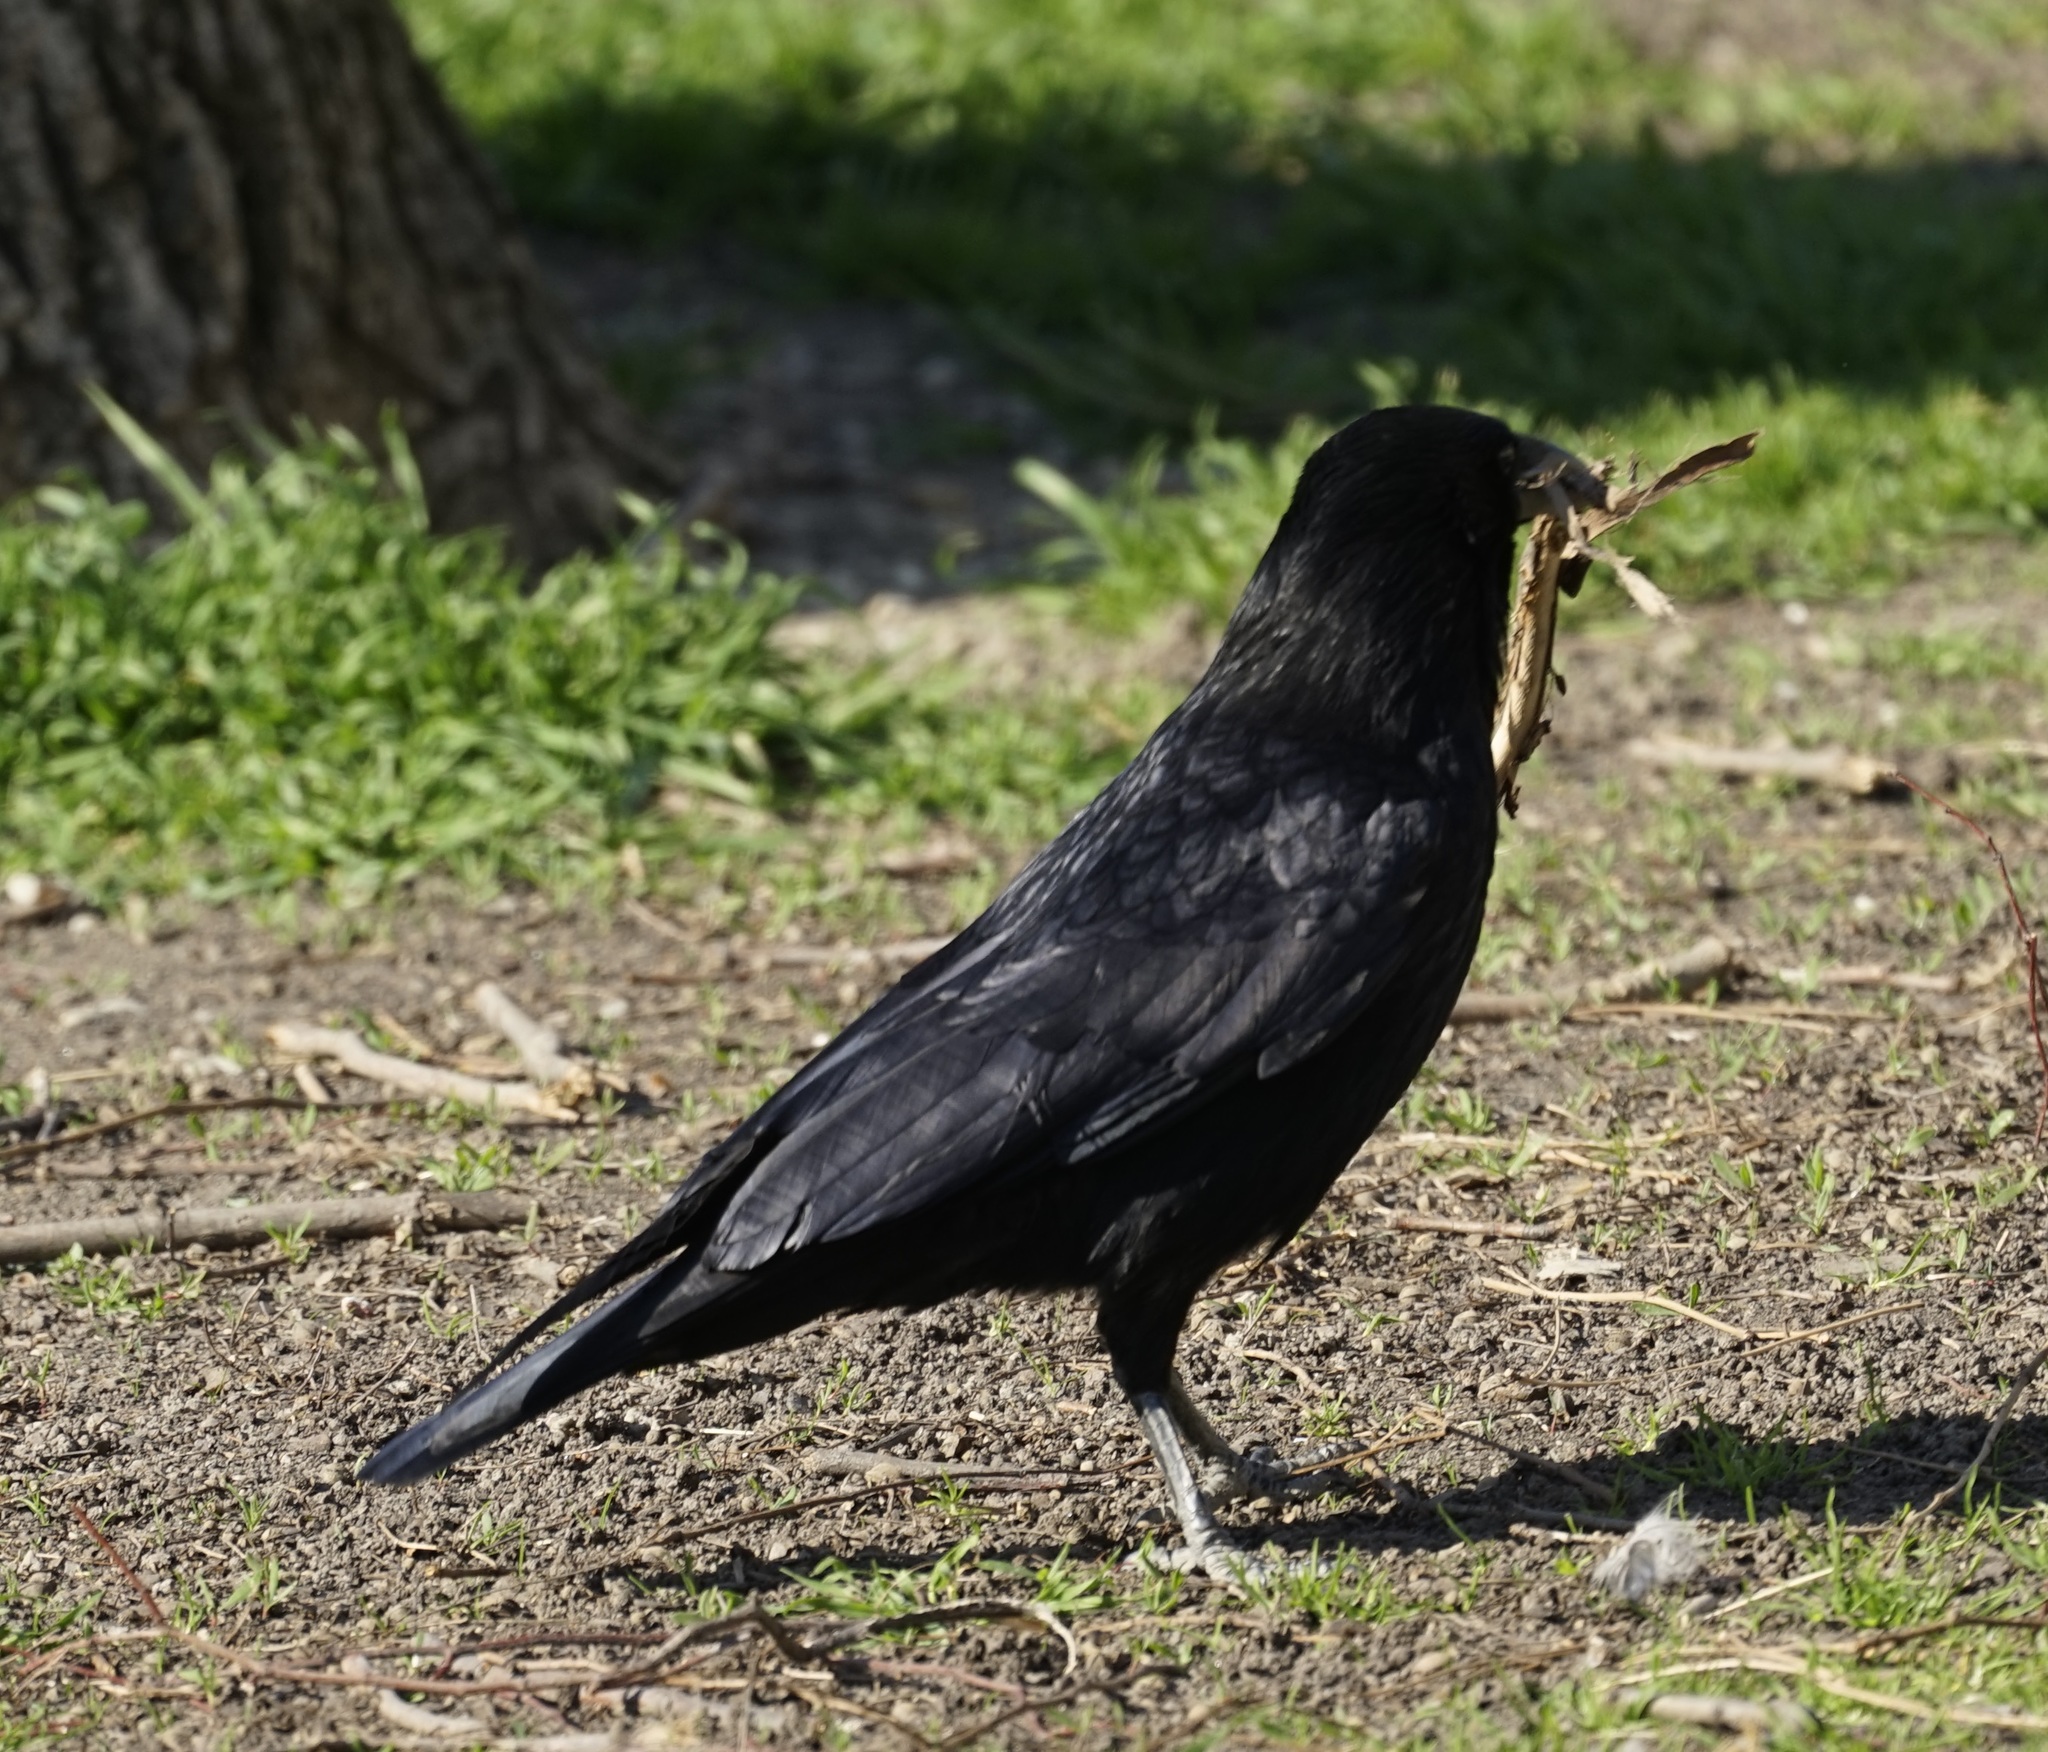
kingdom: Animalia
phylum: Chordata
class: Aves
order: Passeriformes
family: Corvidae
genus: Corvus
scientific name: Corvus corone
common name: Carrion crow
